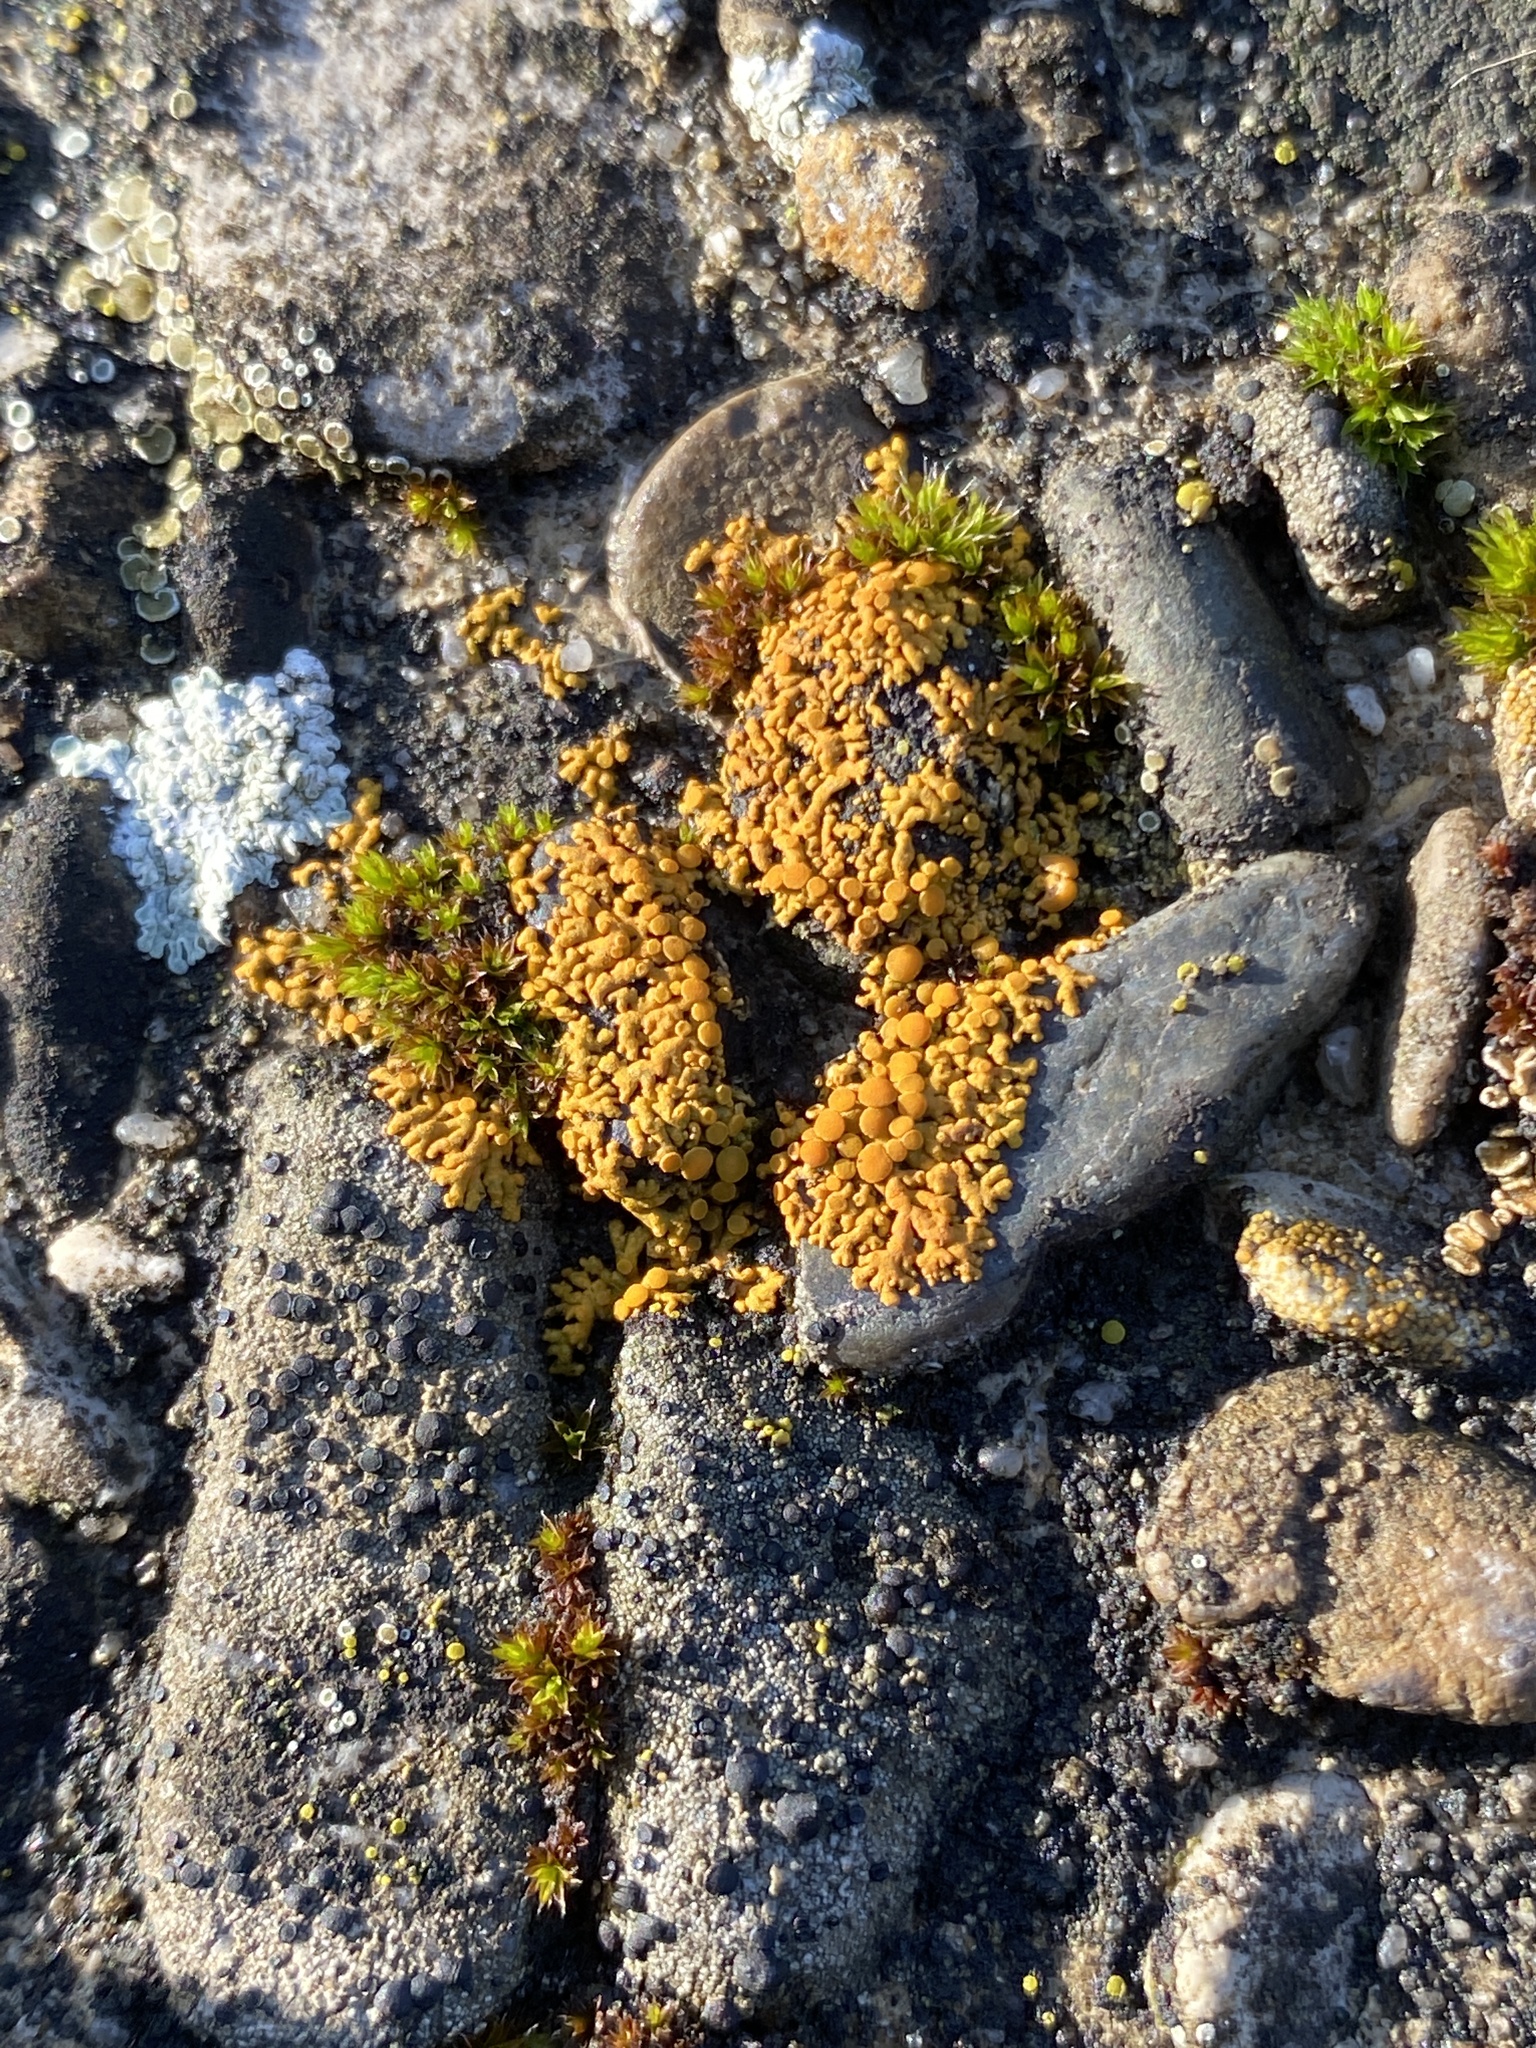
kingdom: Fungi
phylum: Ascomycota
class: Lecanoromycetes
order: Teloschistales
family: Teloschistaceae
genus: Xanthoria
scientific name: Xanthoria elegans
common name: Elegant sunburst lichen
